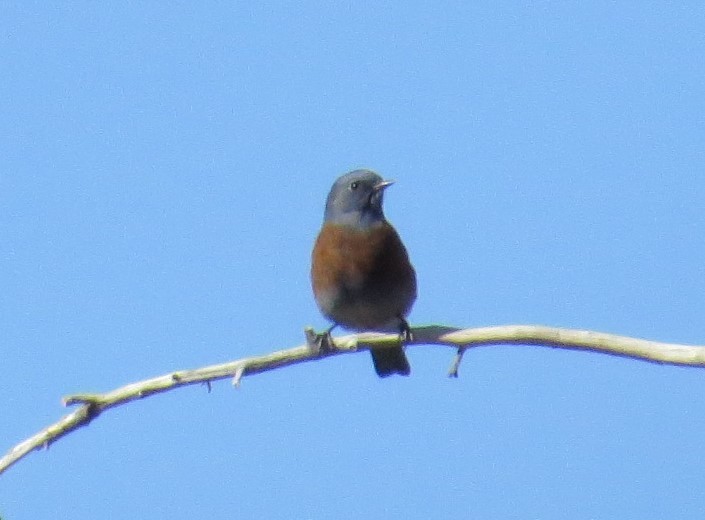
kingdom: Animalia
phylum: Chordata
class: Aves
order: Passeriformes
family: Turdidae
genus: Sialia
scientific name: Sialia mexicana
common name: Western bluebird
